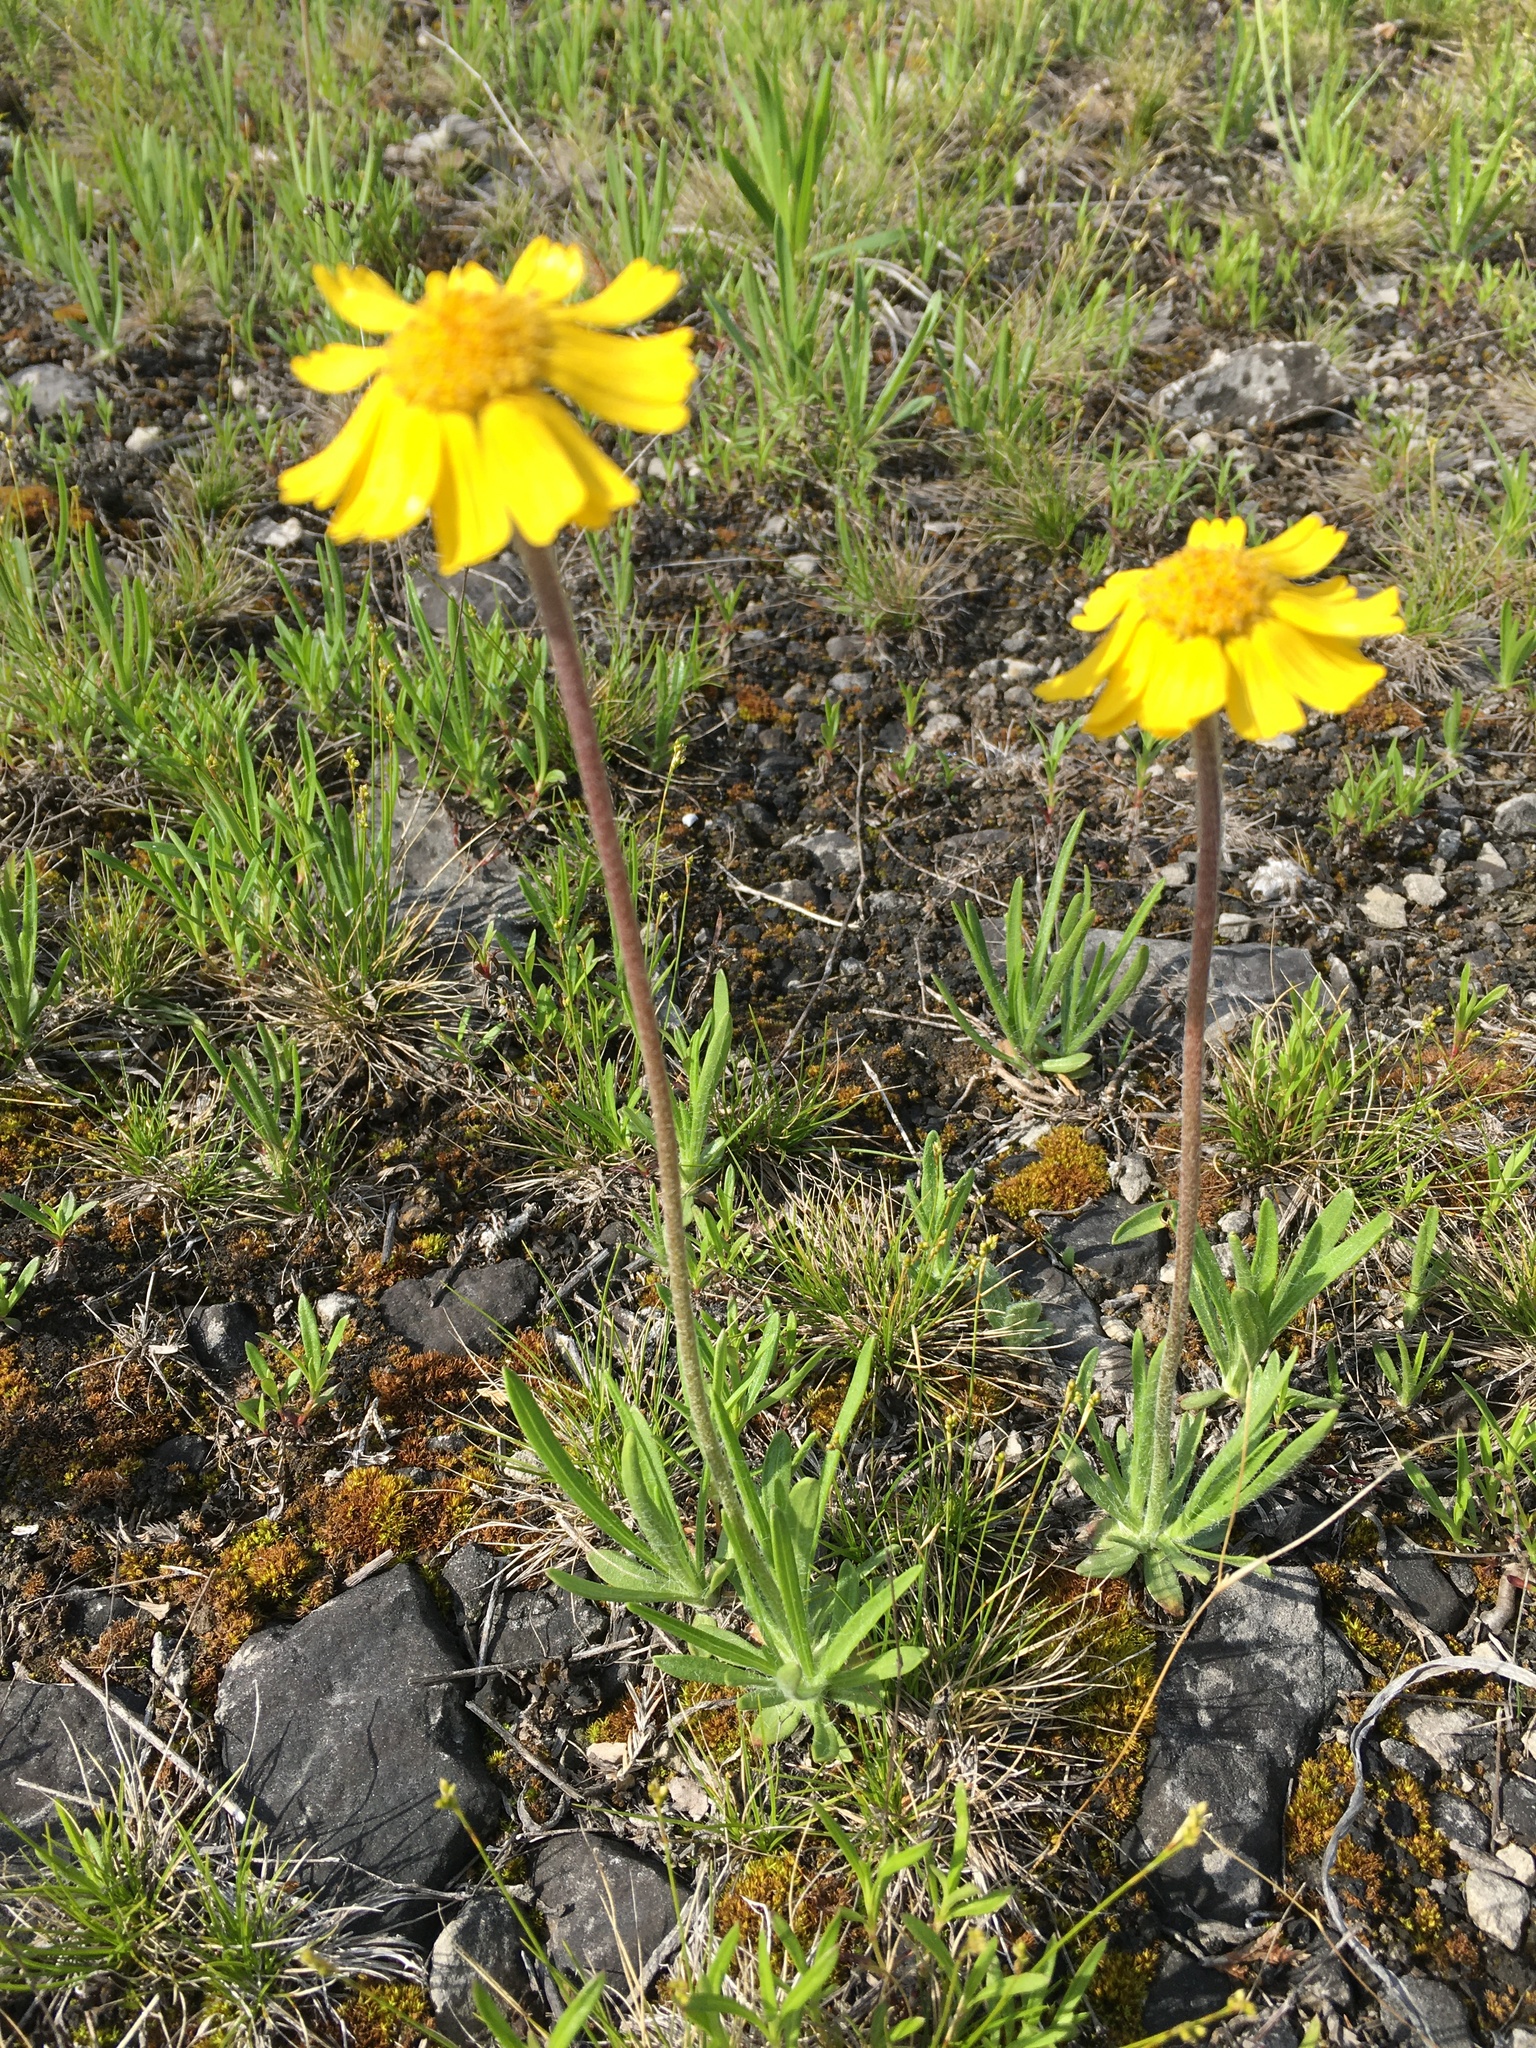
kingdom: Plantae
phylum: Tracheophyta
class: Magnoliopsida
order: Asterales
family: Asteraceae
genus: Tetraneuris
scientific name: Tetraneuris herbacea
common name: Lakeside daisy
